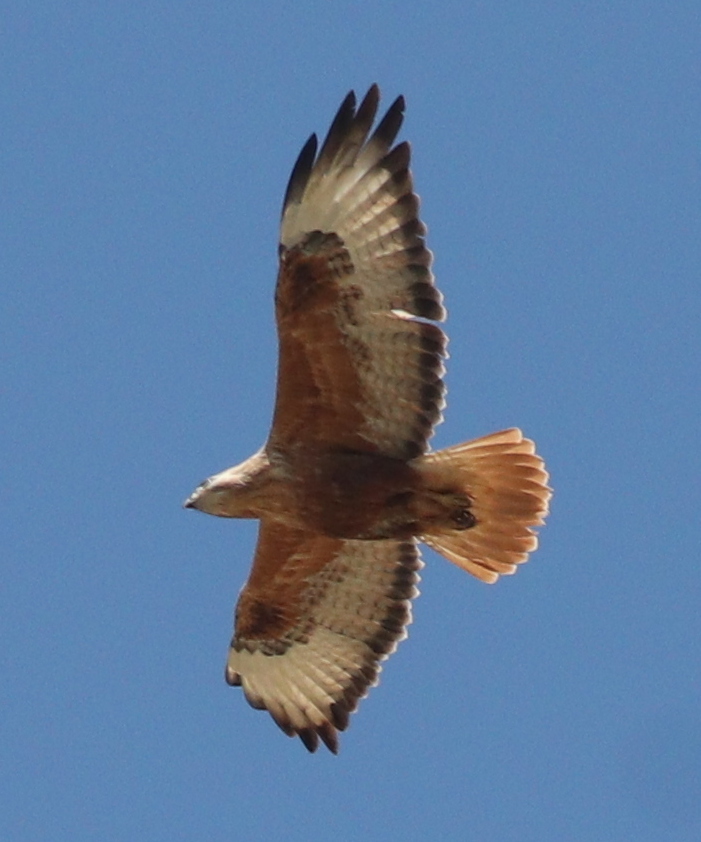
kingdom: Animalia
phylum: Chordata
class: Aves
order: Accipitriformes
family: Accipitridae
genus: Buteo
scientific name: Buteo rufinus
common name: Long-legged buzzard
